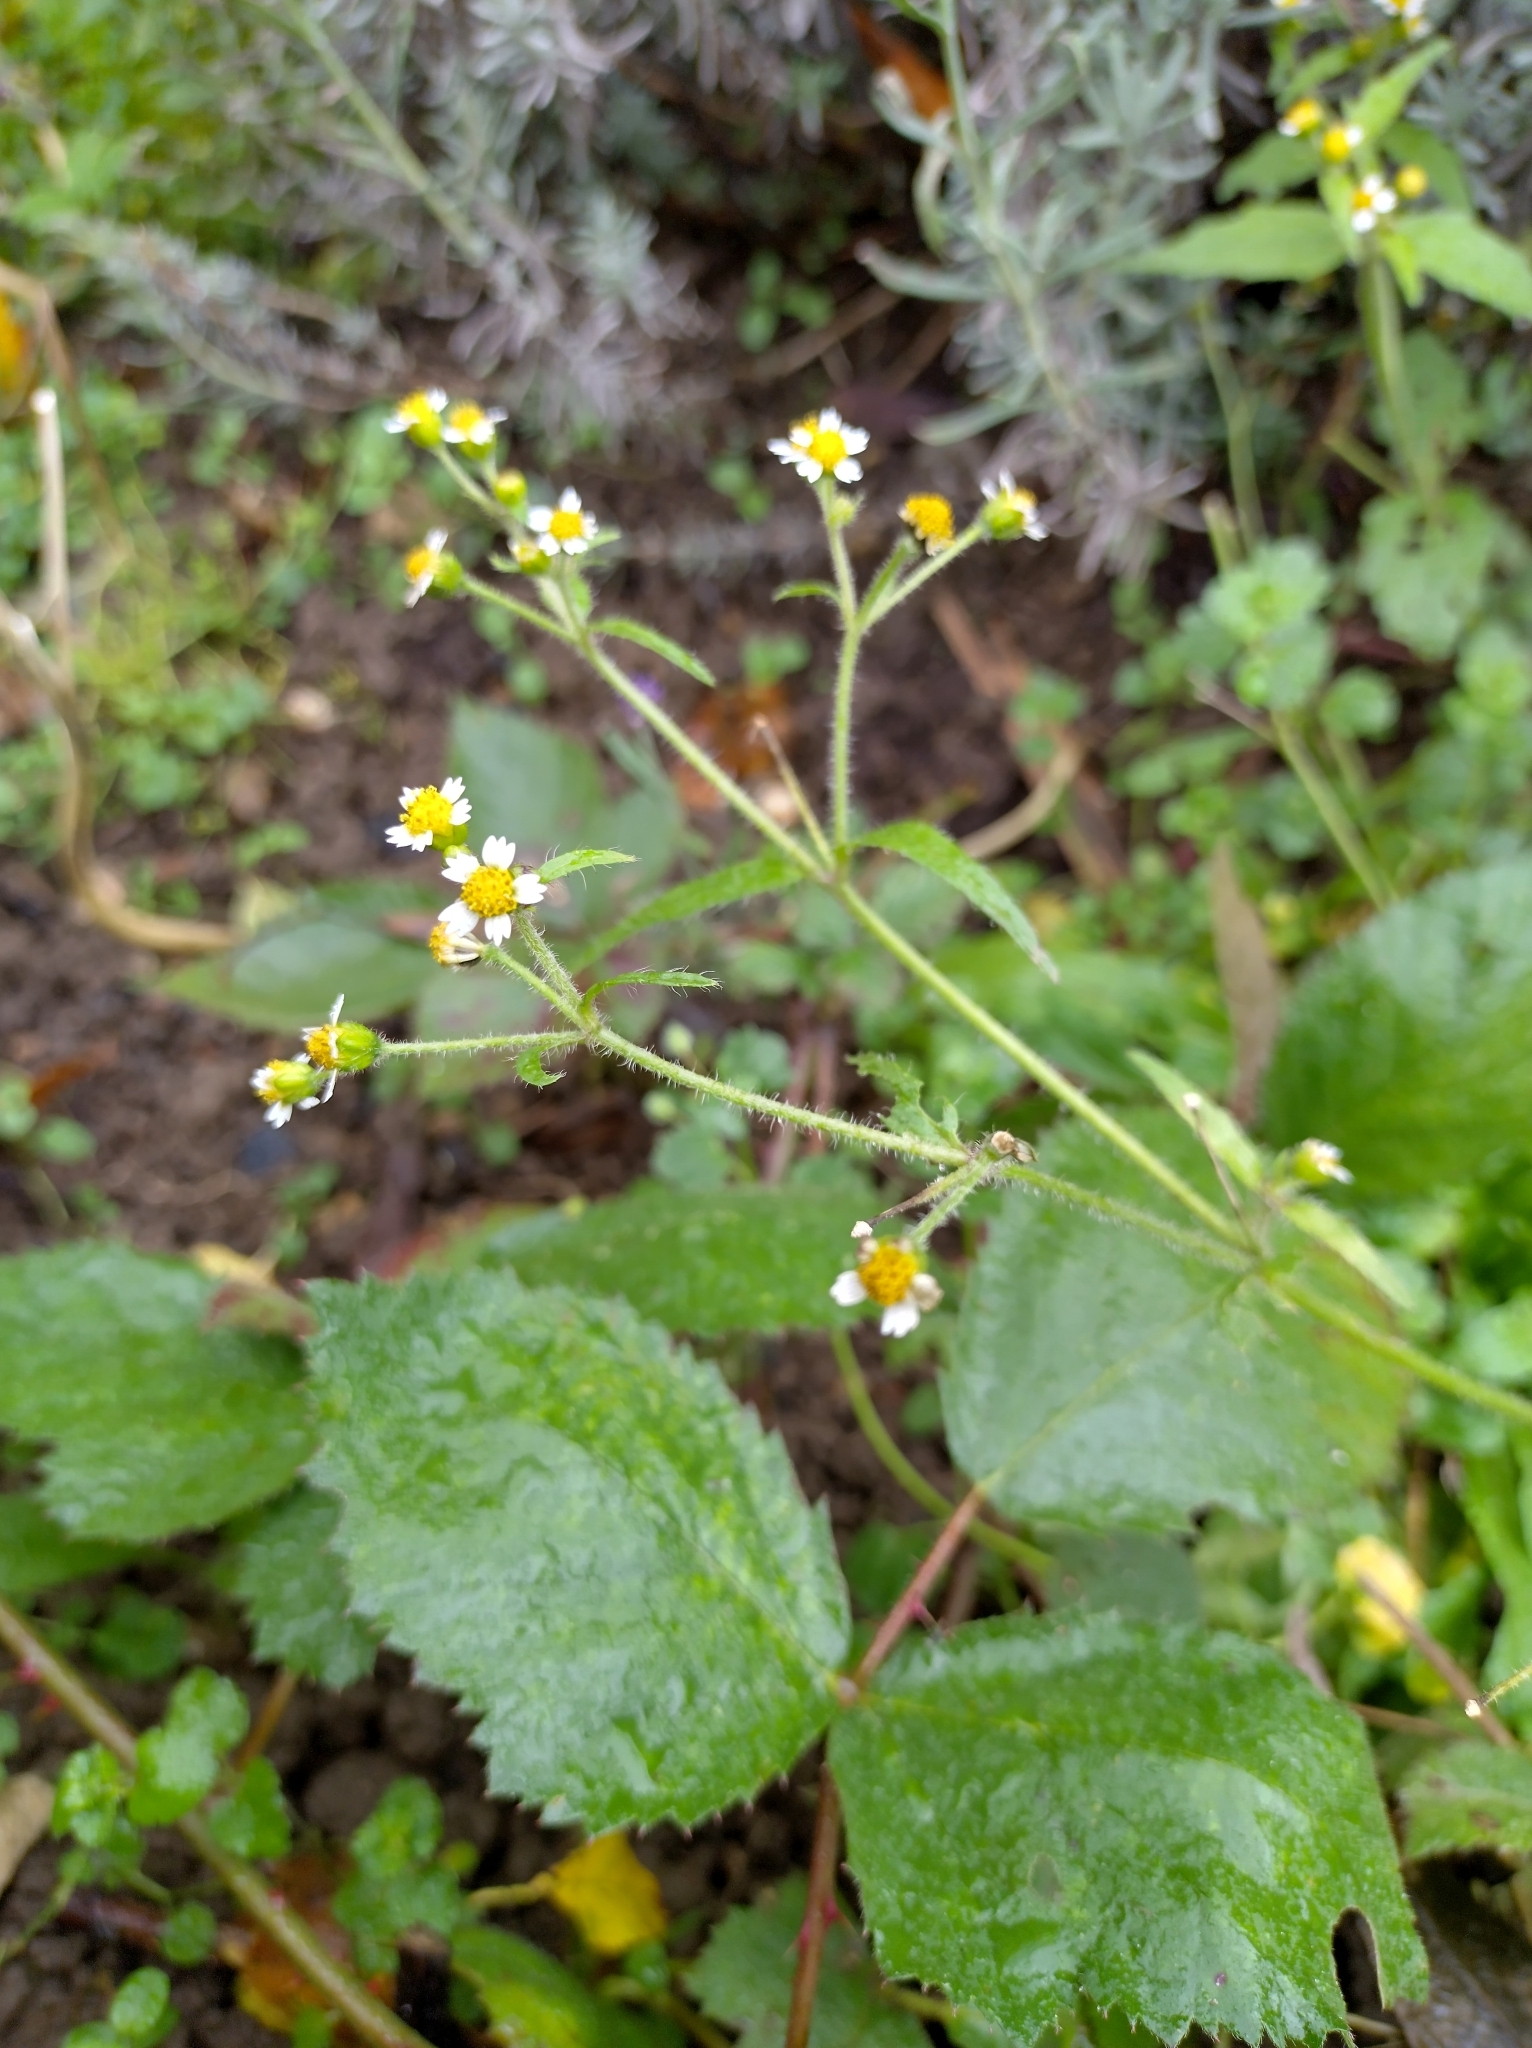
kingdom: Plantae
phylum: Tracheophyta
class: Magnoliopsida
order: Asterales
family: Asteraceae
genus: Galinsoga
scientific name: Galinsoga quadriradiata
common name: Shaggy soldier
